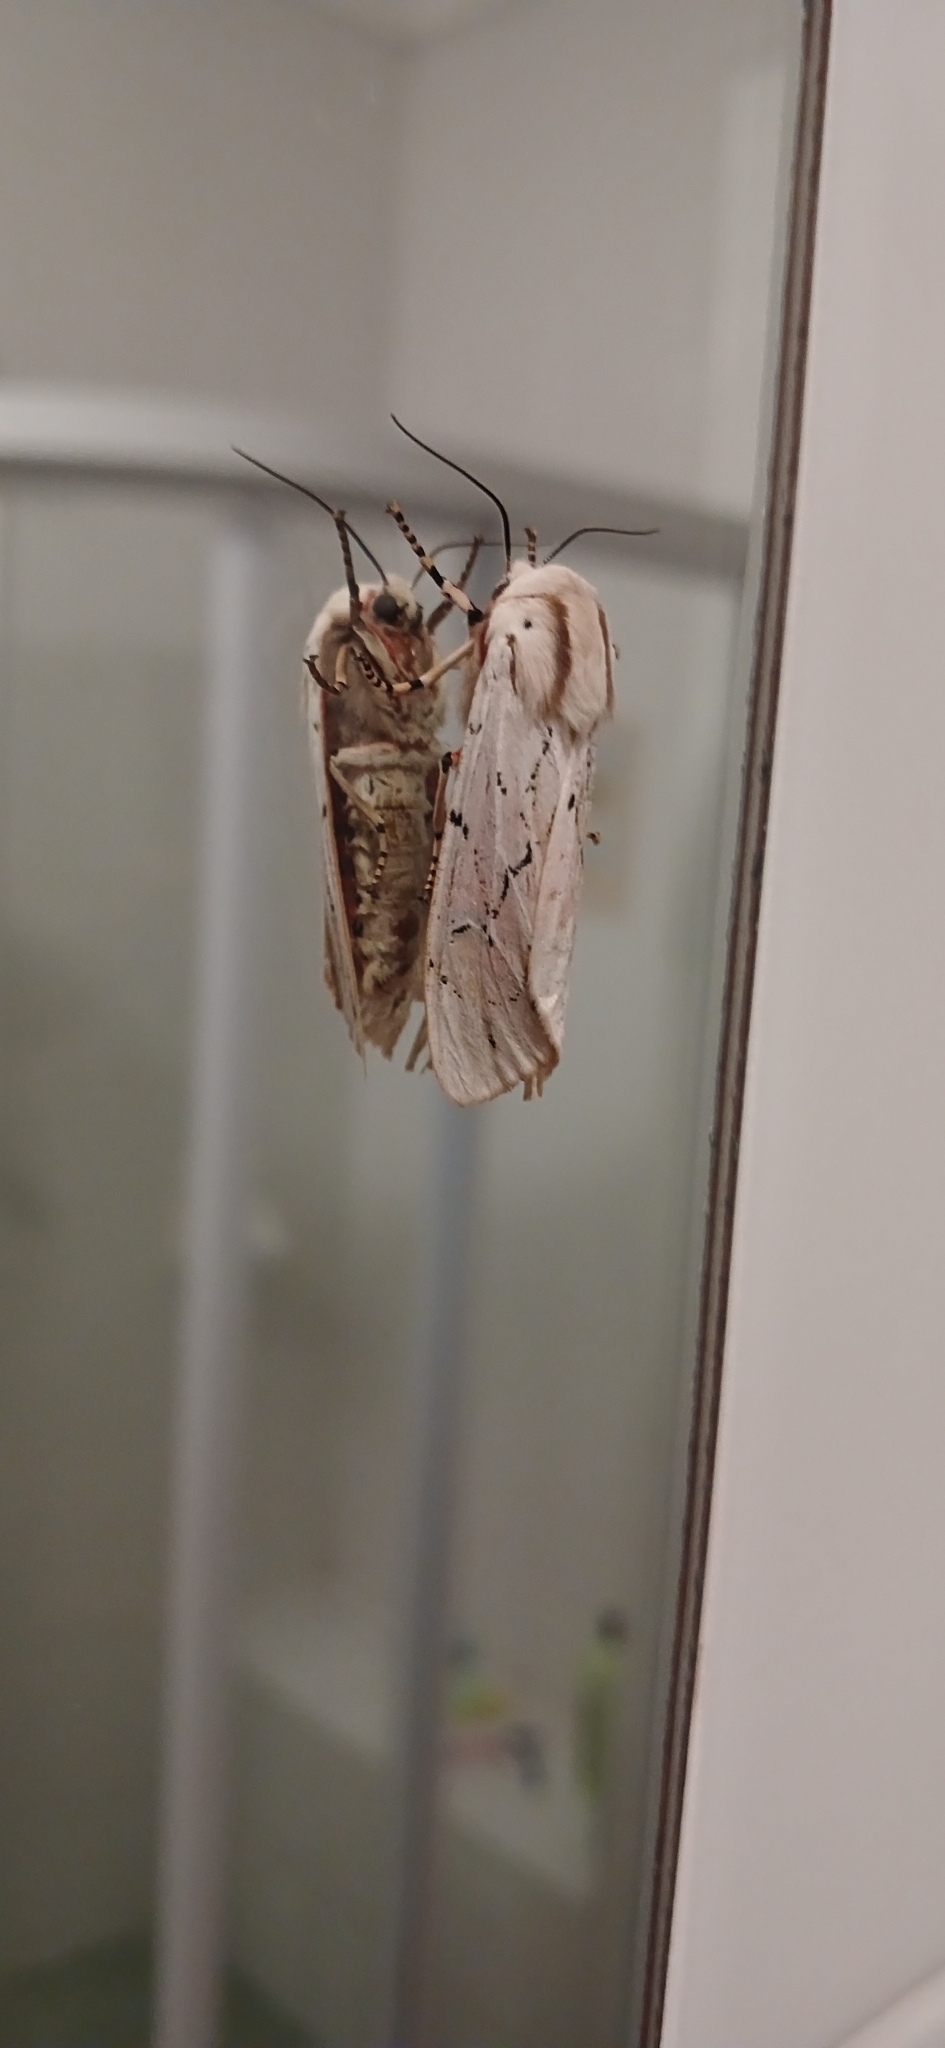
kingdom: Animalia
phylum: Arthropoda
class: Insecta
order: Lepidoptera
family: Erebidae
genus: Rhodogastria
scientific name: Rhodogastria amasis
